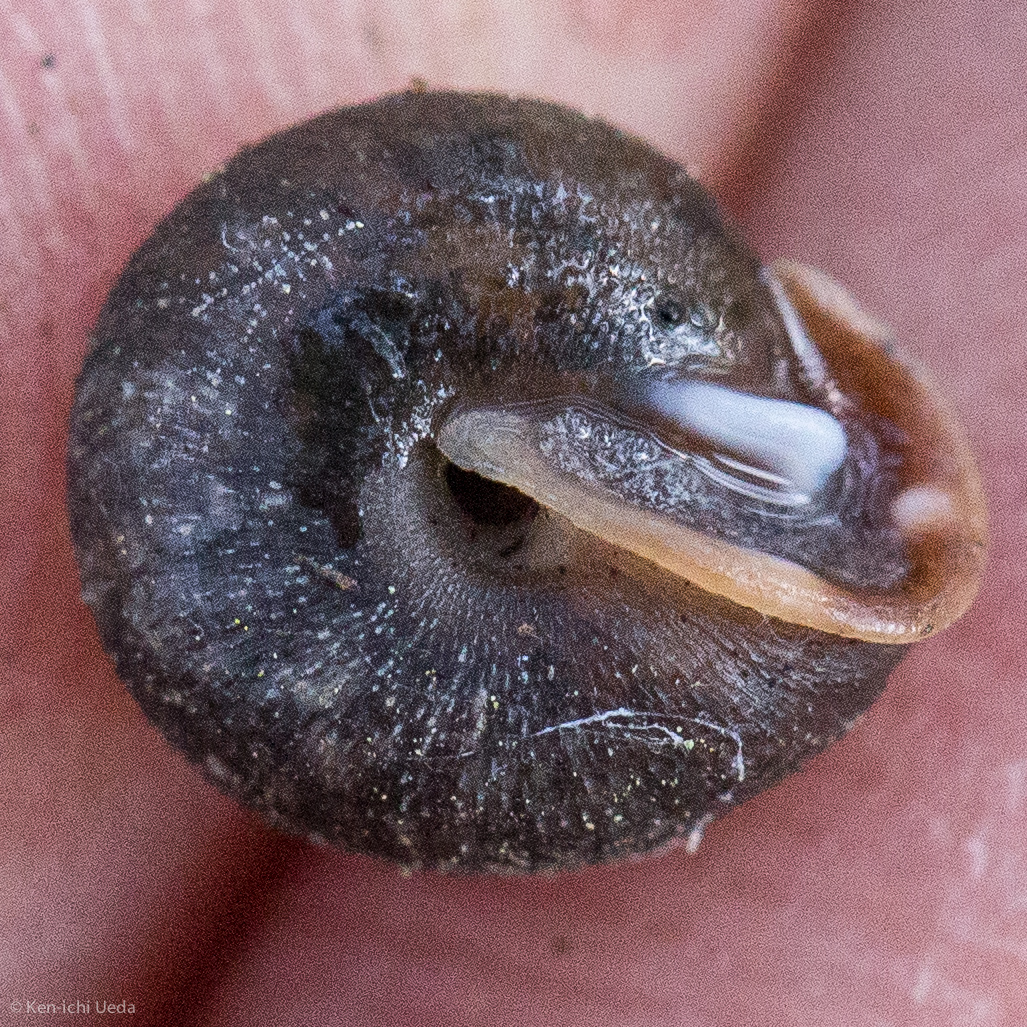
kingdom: Animalia
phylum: Mollusca
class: Gastropoda
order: Stylommatophora
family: Polygyridae
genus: Trilobopsis
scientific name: Trilobopsis loricata
